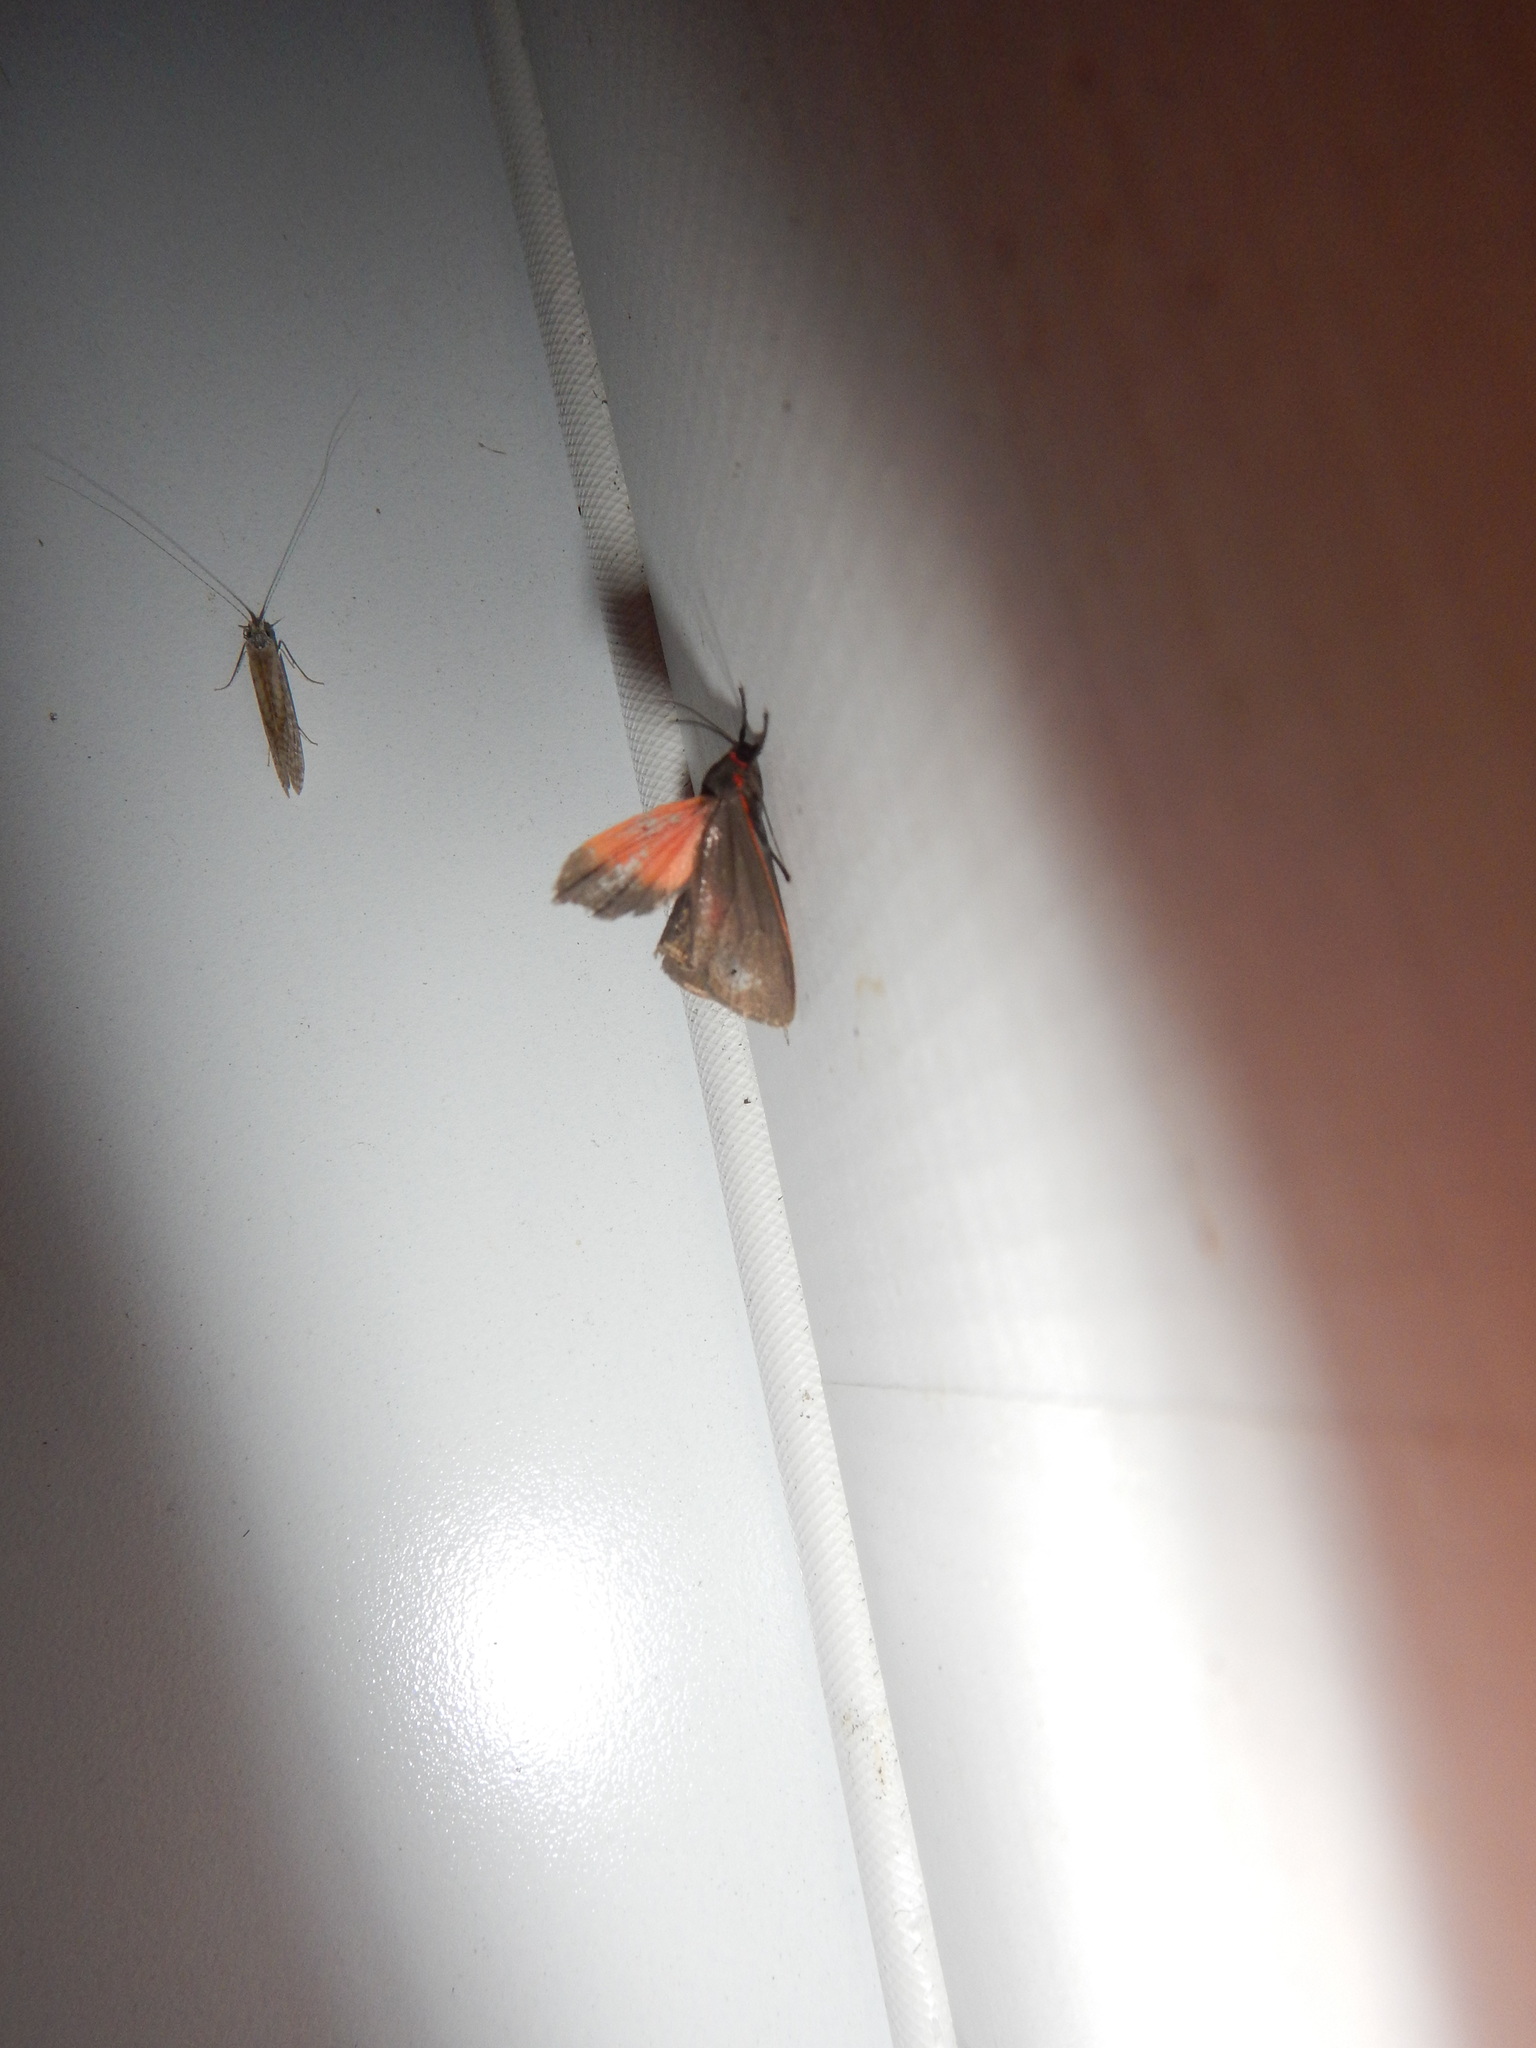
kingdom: Animalia
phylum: Arthropoda
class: Insecta
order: Lepidoptera
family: Erebidae
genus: Virbia
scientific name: Virbia laeta
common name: Joyful holomelina moth
